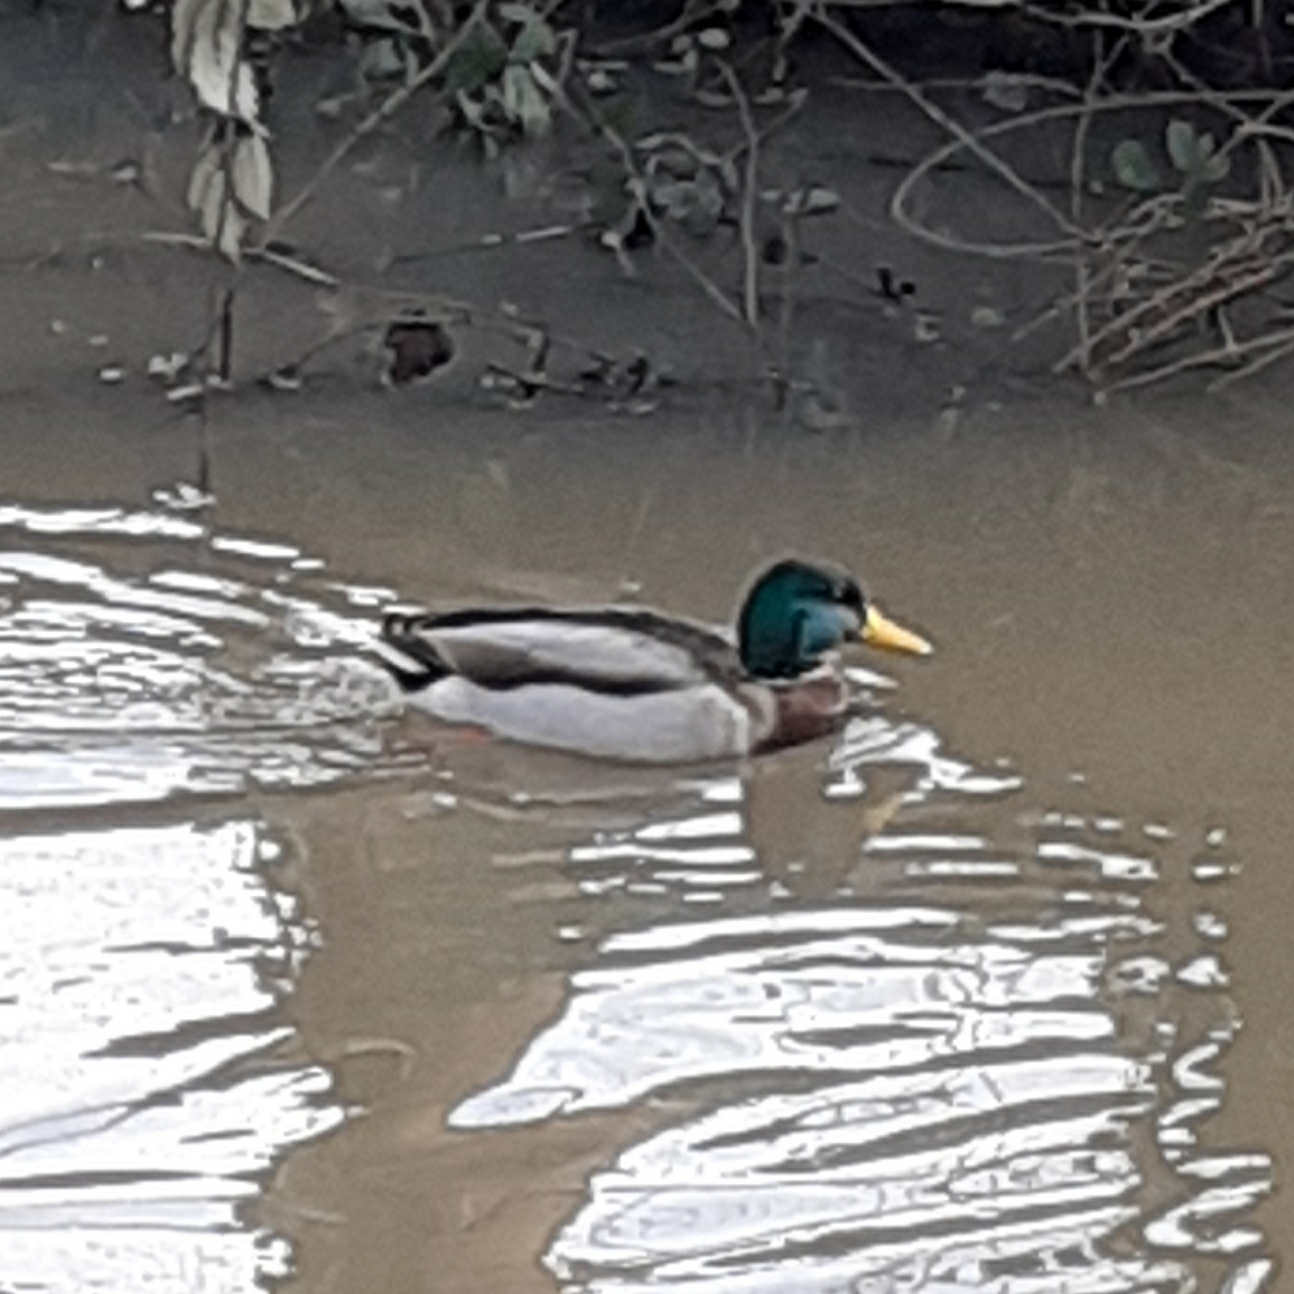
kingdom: Animalia
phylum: Chordata
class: Aves
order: Anseriformes
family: Anatidae
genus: Anas
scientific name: Anas platyrhynchos
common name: Mallard
